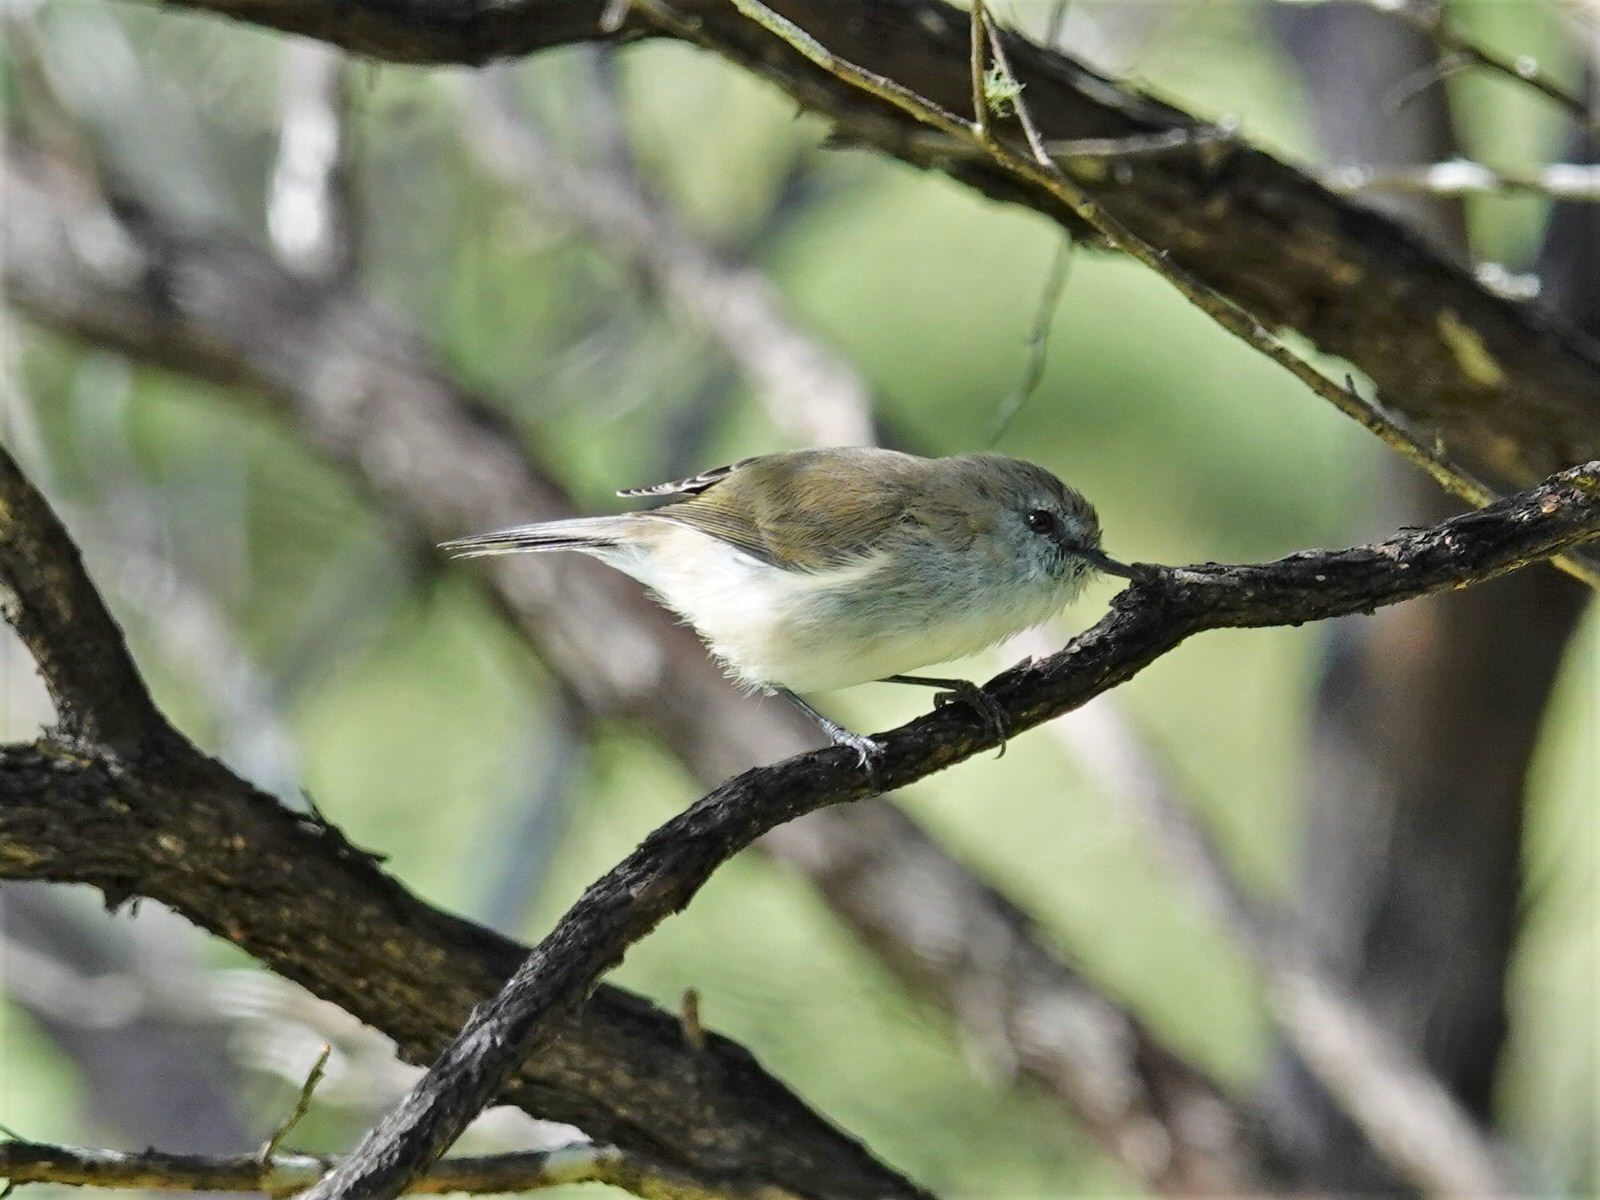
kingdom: Animalia
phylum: Chordata
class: Aves
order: Passeriformes
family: Acanthizidae
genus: Gerygone
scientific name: Gerygone igata
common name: Grey gerygone
